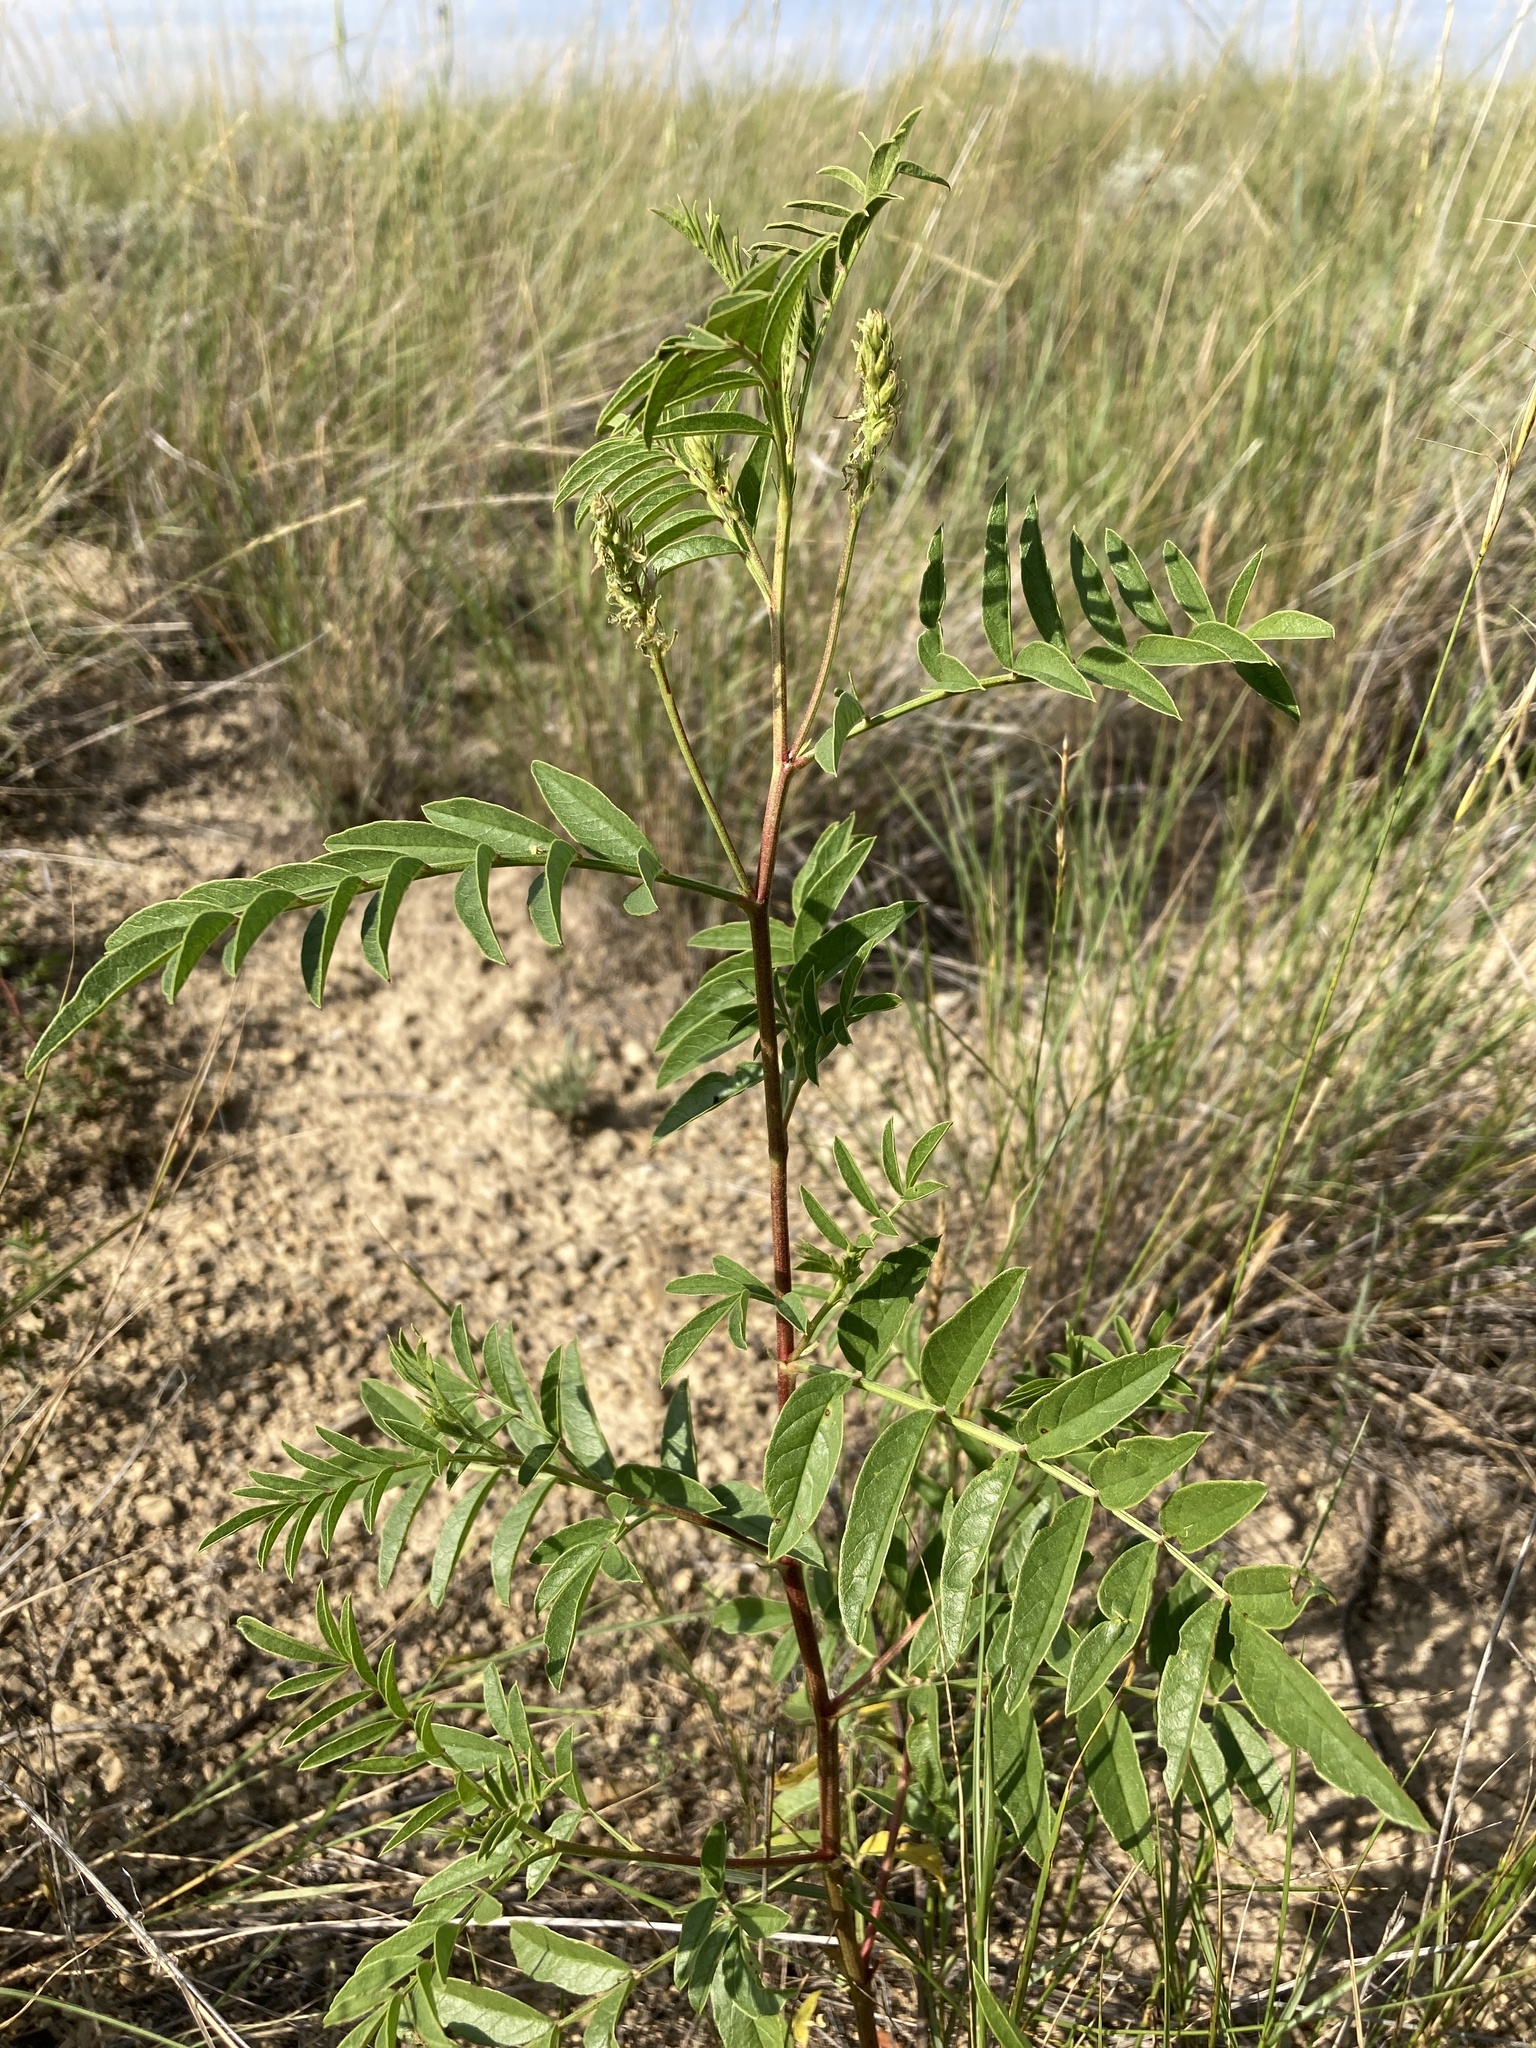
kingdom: Plantae
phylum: Tracheophyta
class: Magnoliopsida
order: Fabales
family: Fabaceae
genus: Glycyrrhiza
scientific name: Glycyrrhiza lepidota
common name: American liquorice
